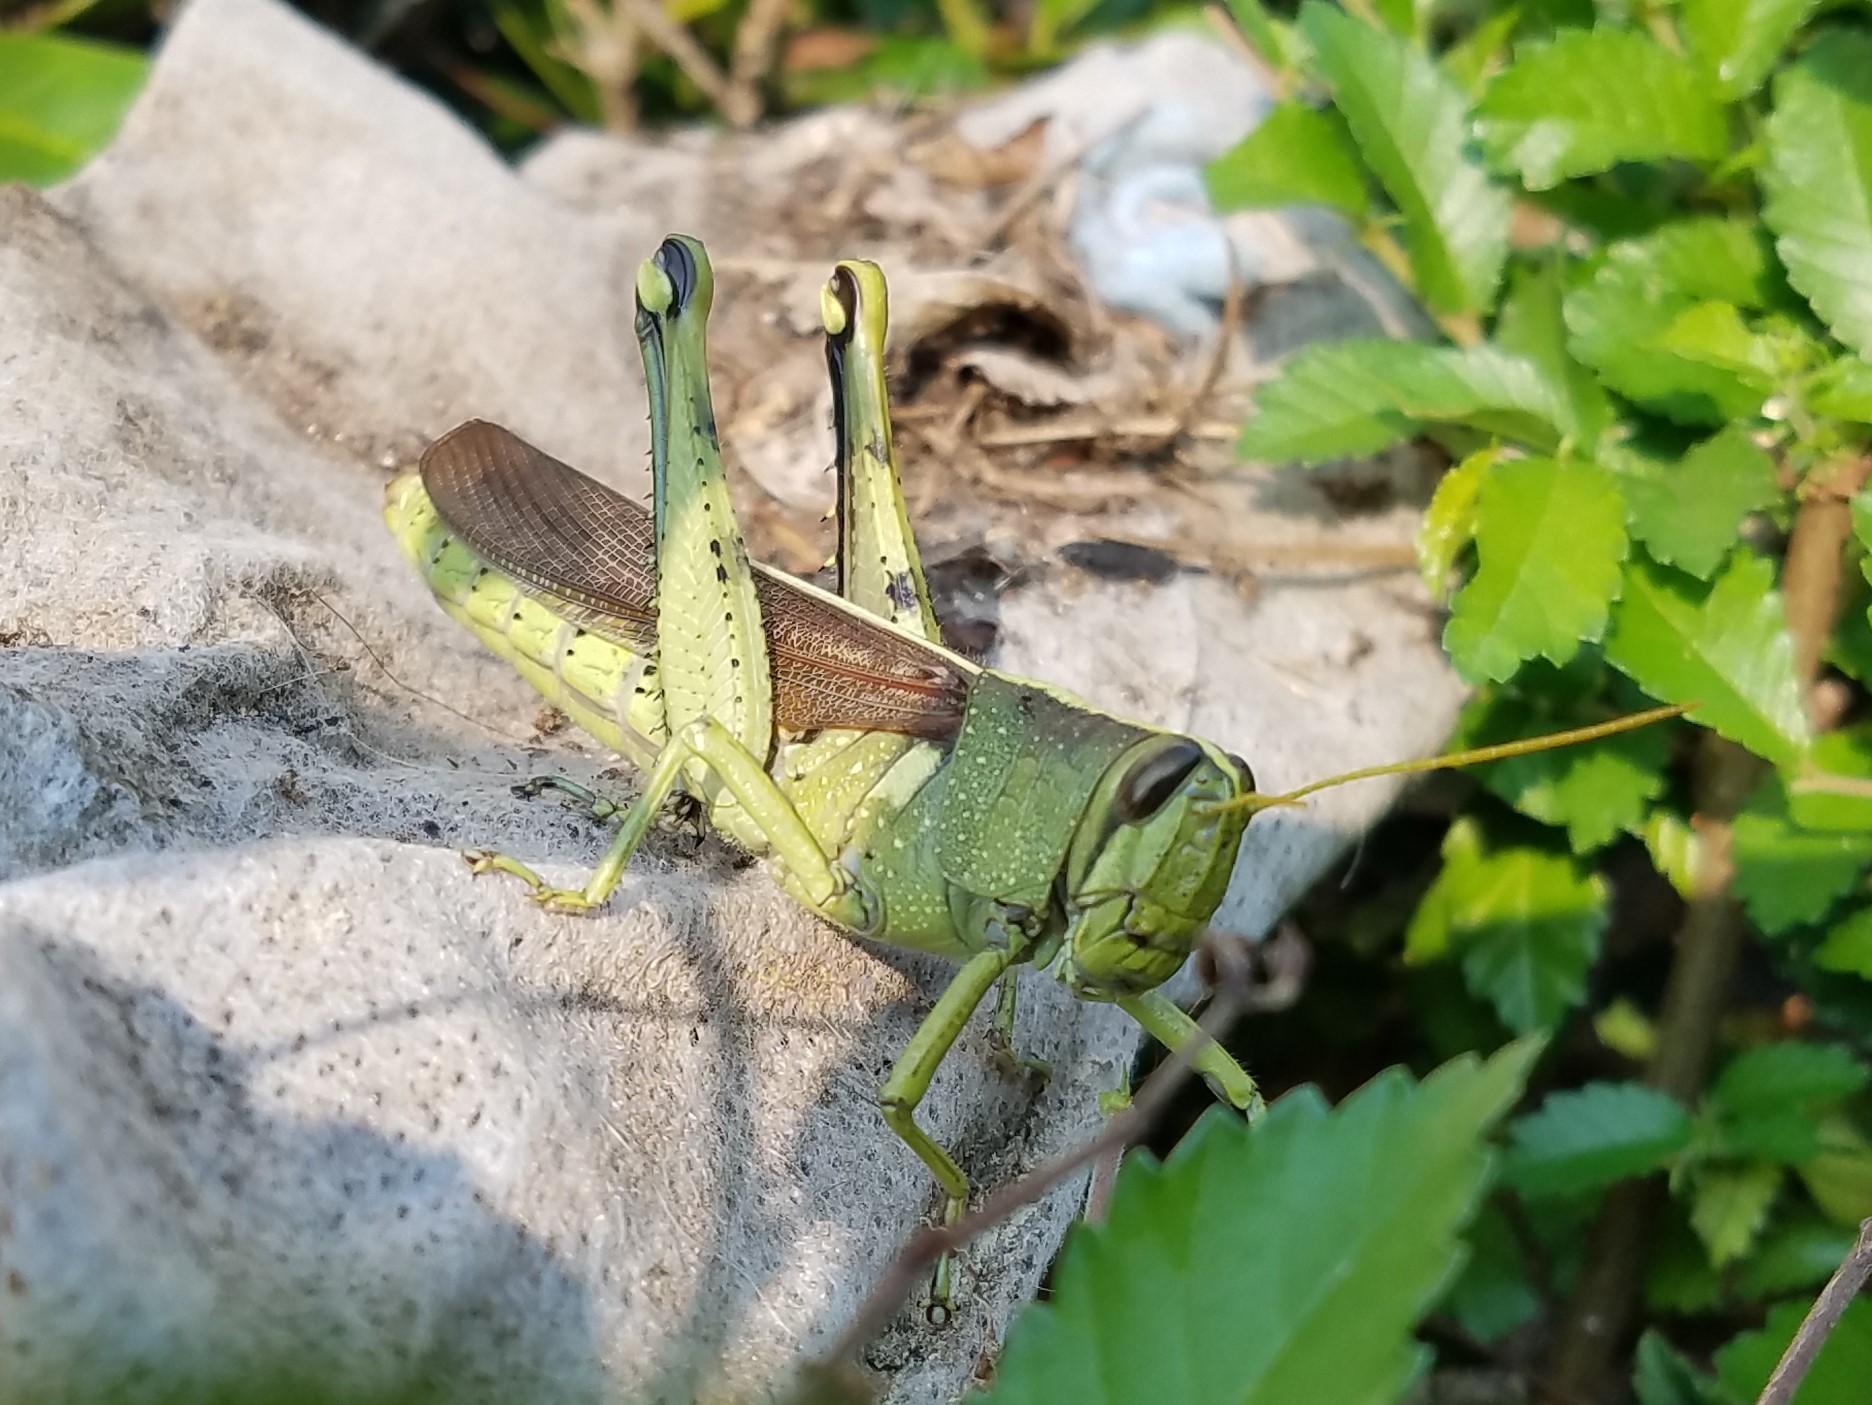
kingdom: Animalia
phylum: Arthropoda
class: Insecta
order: Orthoptera
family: Acrididae
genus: Schistocerca
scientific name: Schistocerca lineata
